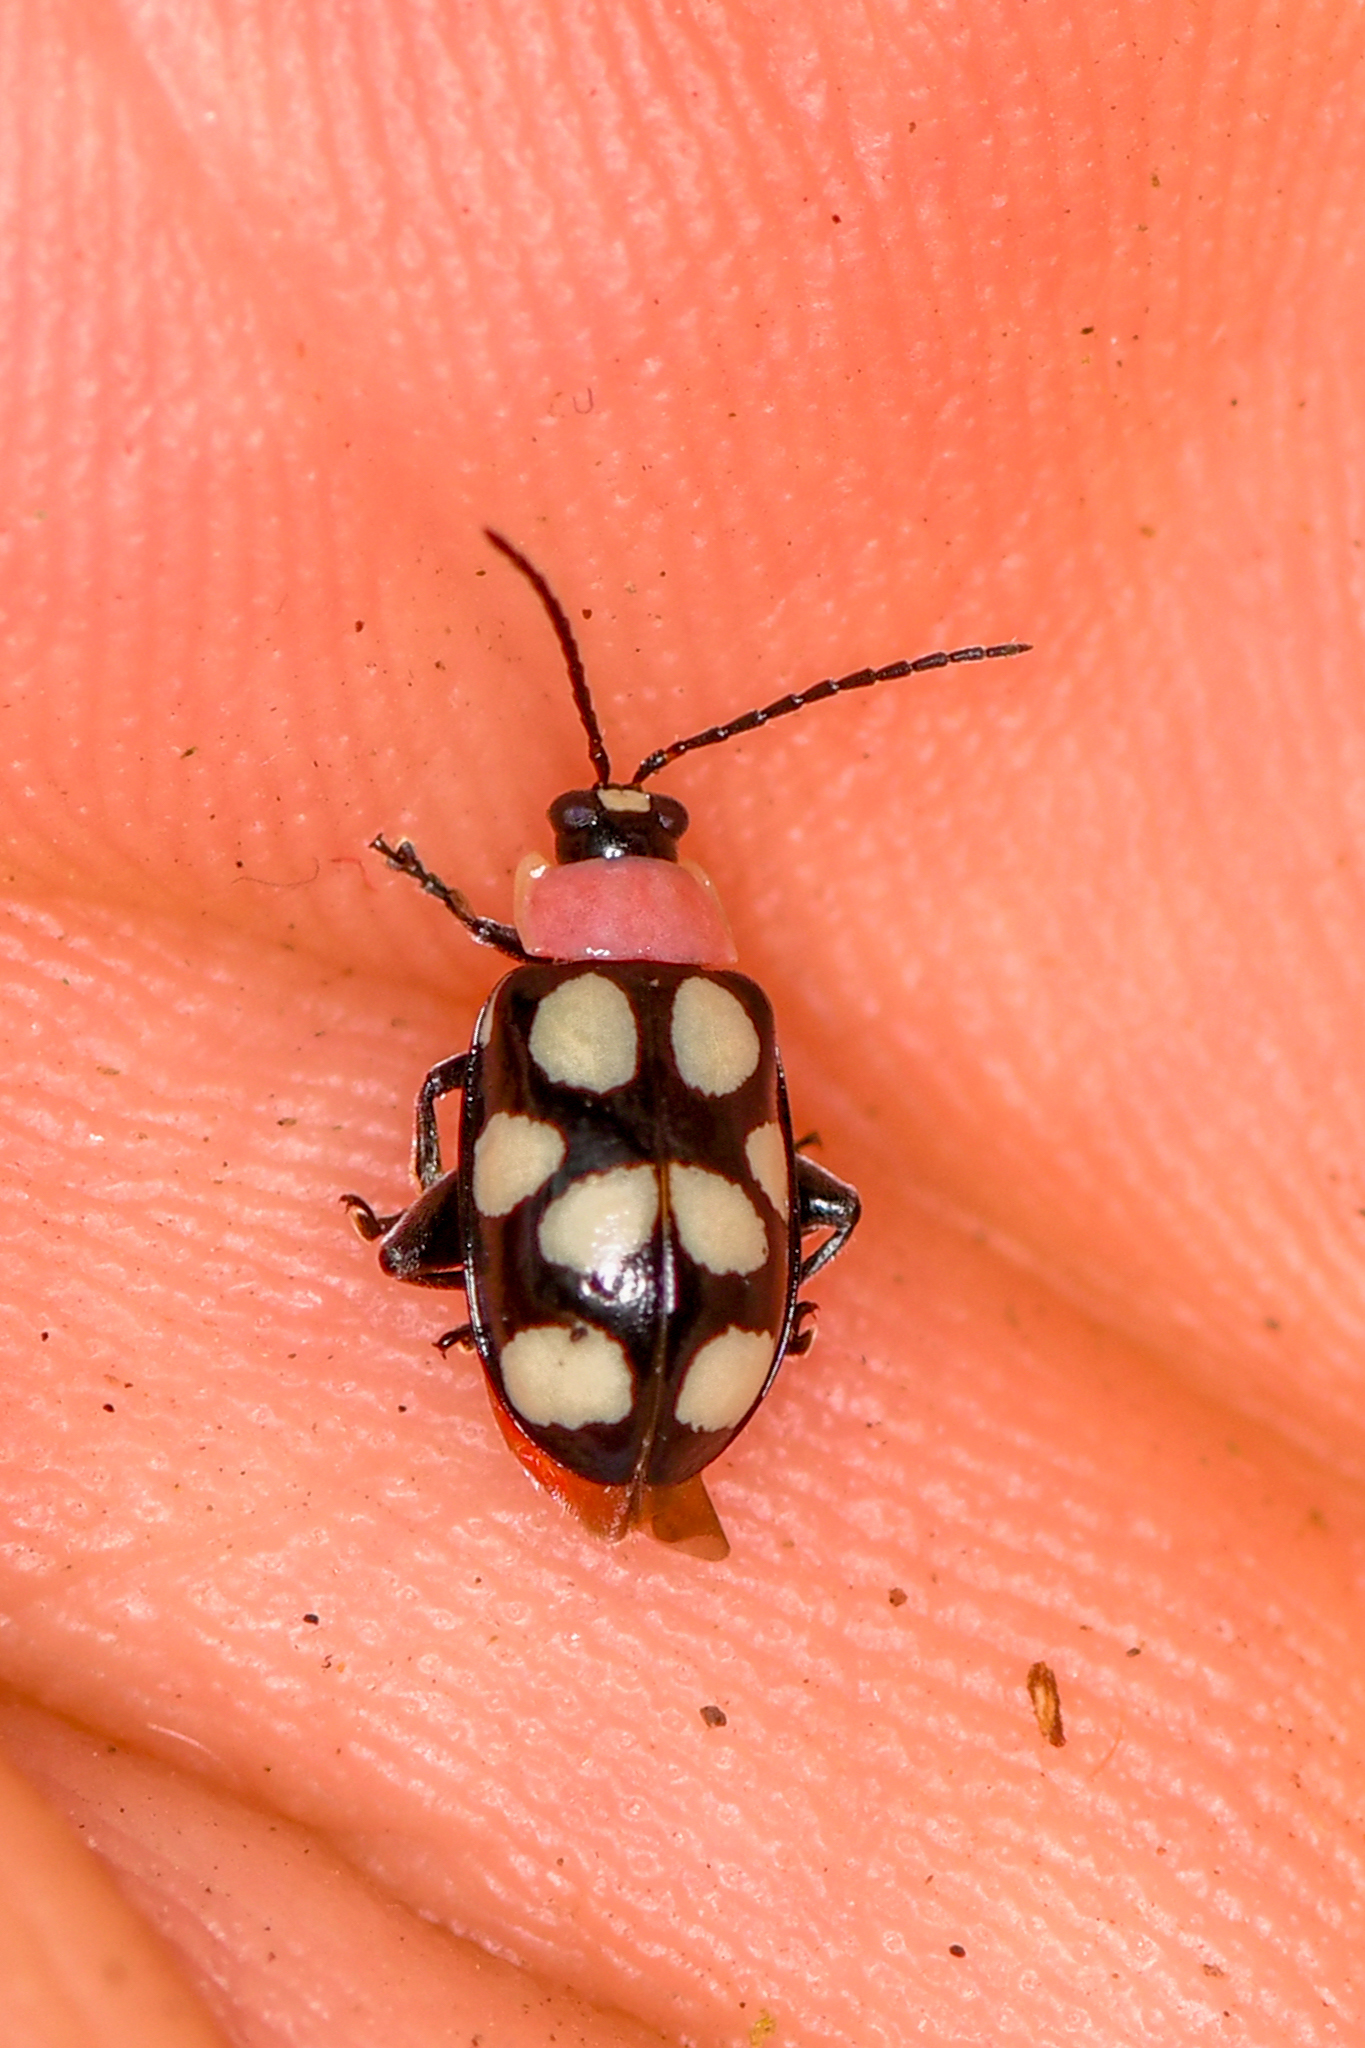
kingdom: Animalia
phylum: Arthropoda
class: Insecta
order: Coleoptera
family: Chrysomelidae
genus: Omophoita
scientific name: Omophoita aequinoctialis
